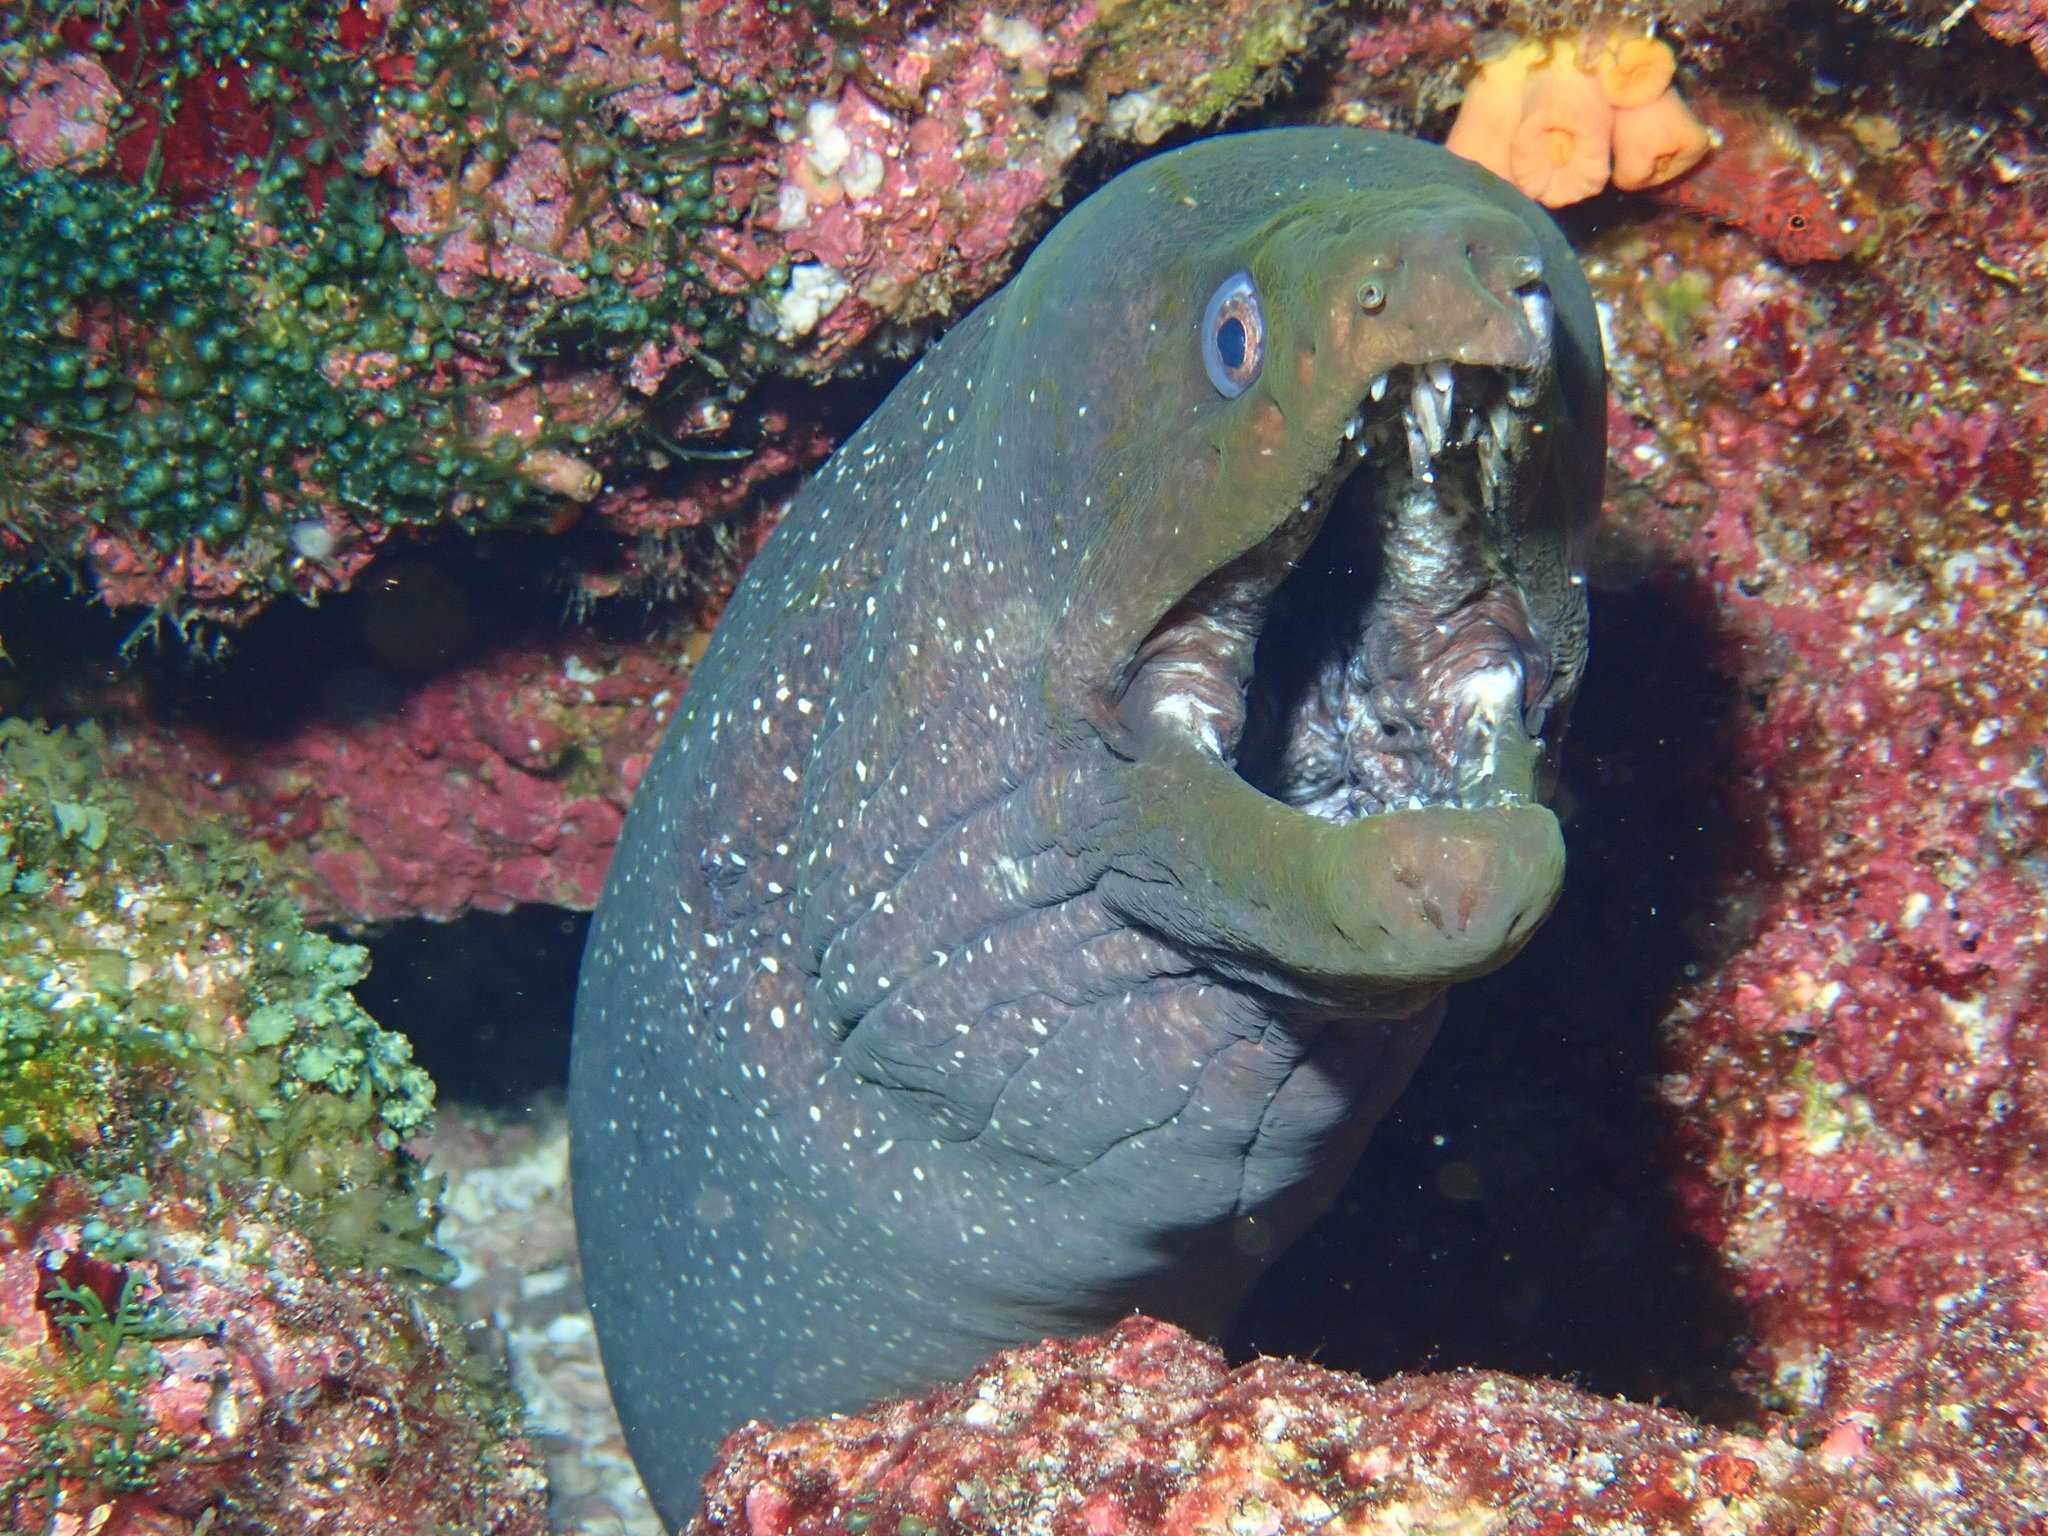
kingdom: Animalia
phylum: Chordata
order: Anguilliformes
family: Muraenidae
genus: Gymnothorax
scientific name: Gymnothorax dovii
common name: Finespotted moray
